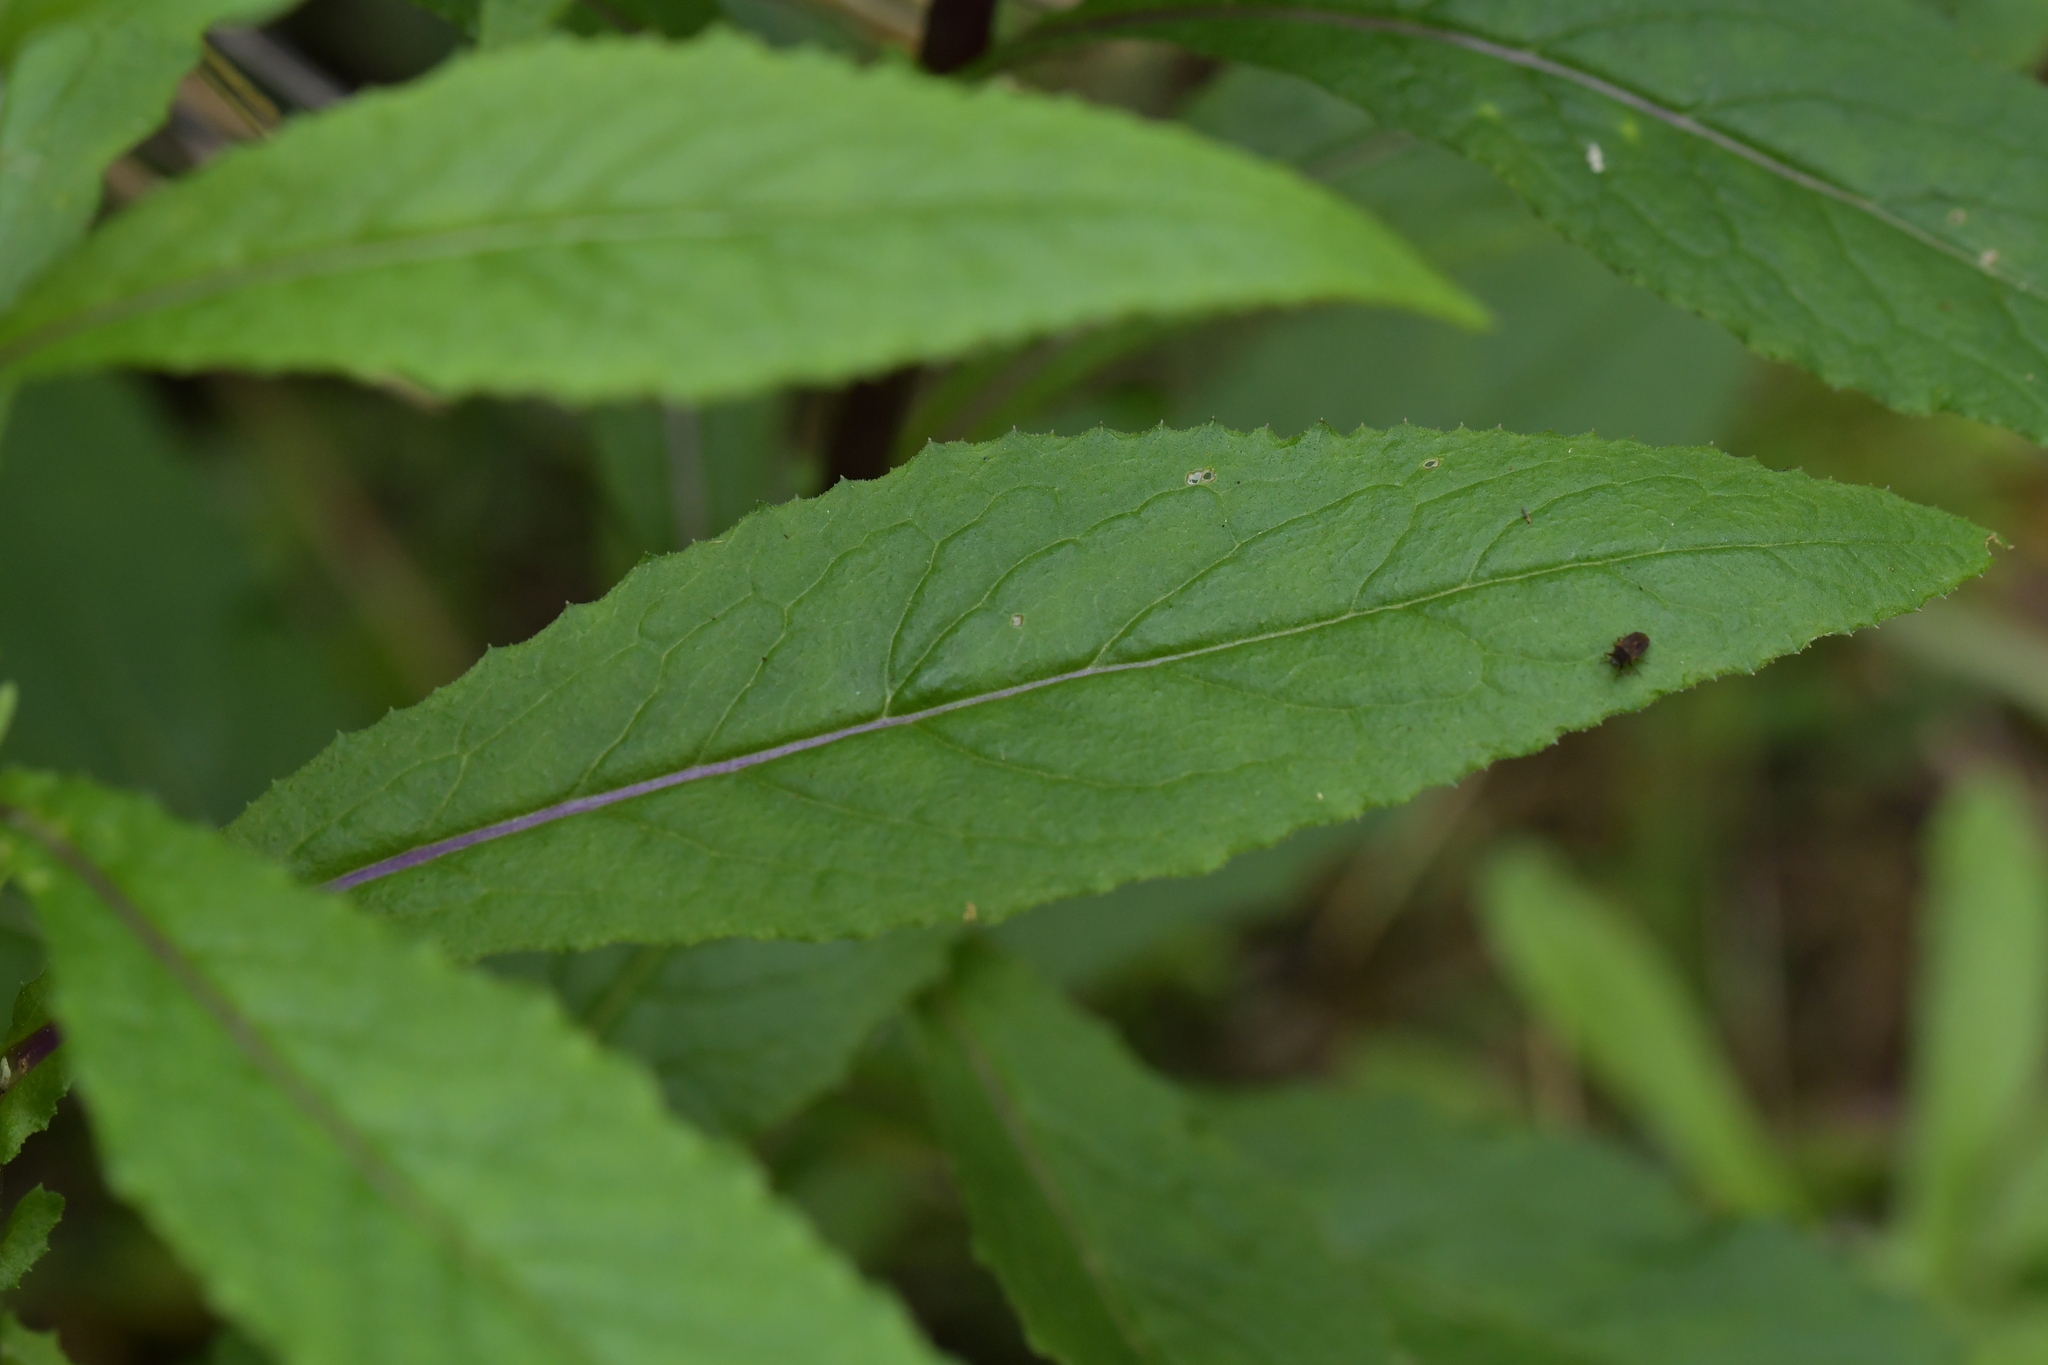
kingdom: Plantae
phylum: Tracheophyta
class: Magnoliopsida
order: Asterales
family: Asteraceae
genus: Senecio
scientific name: Senecio minimus
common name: Toothed fireweed
